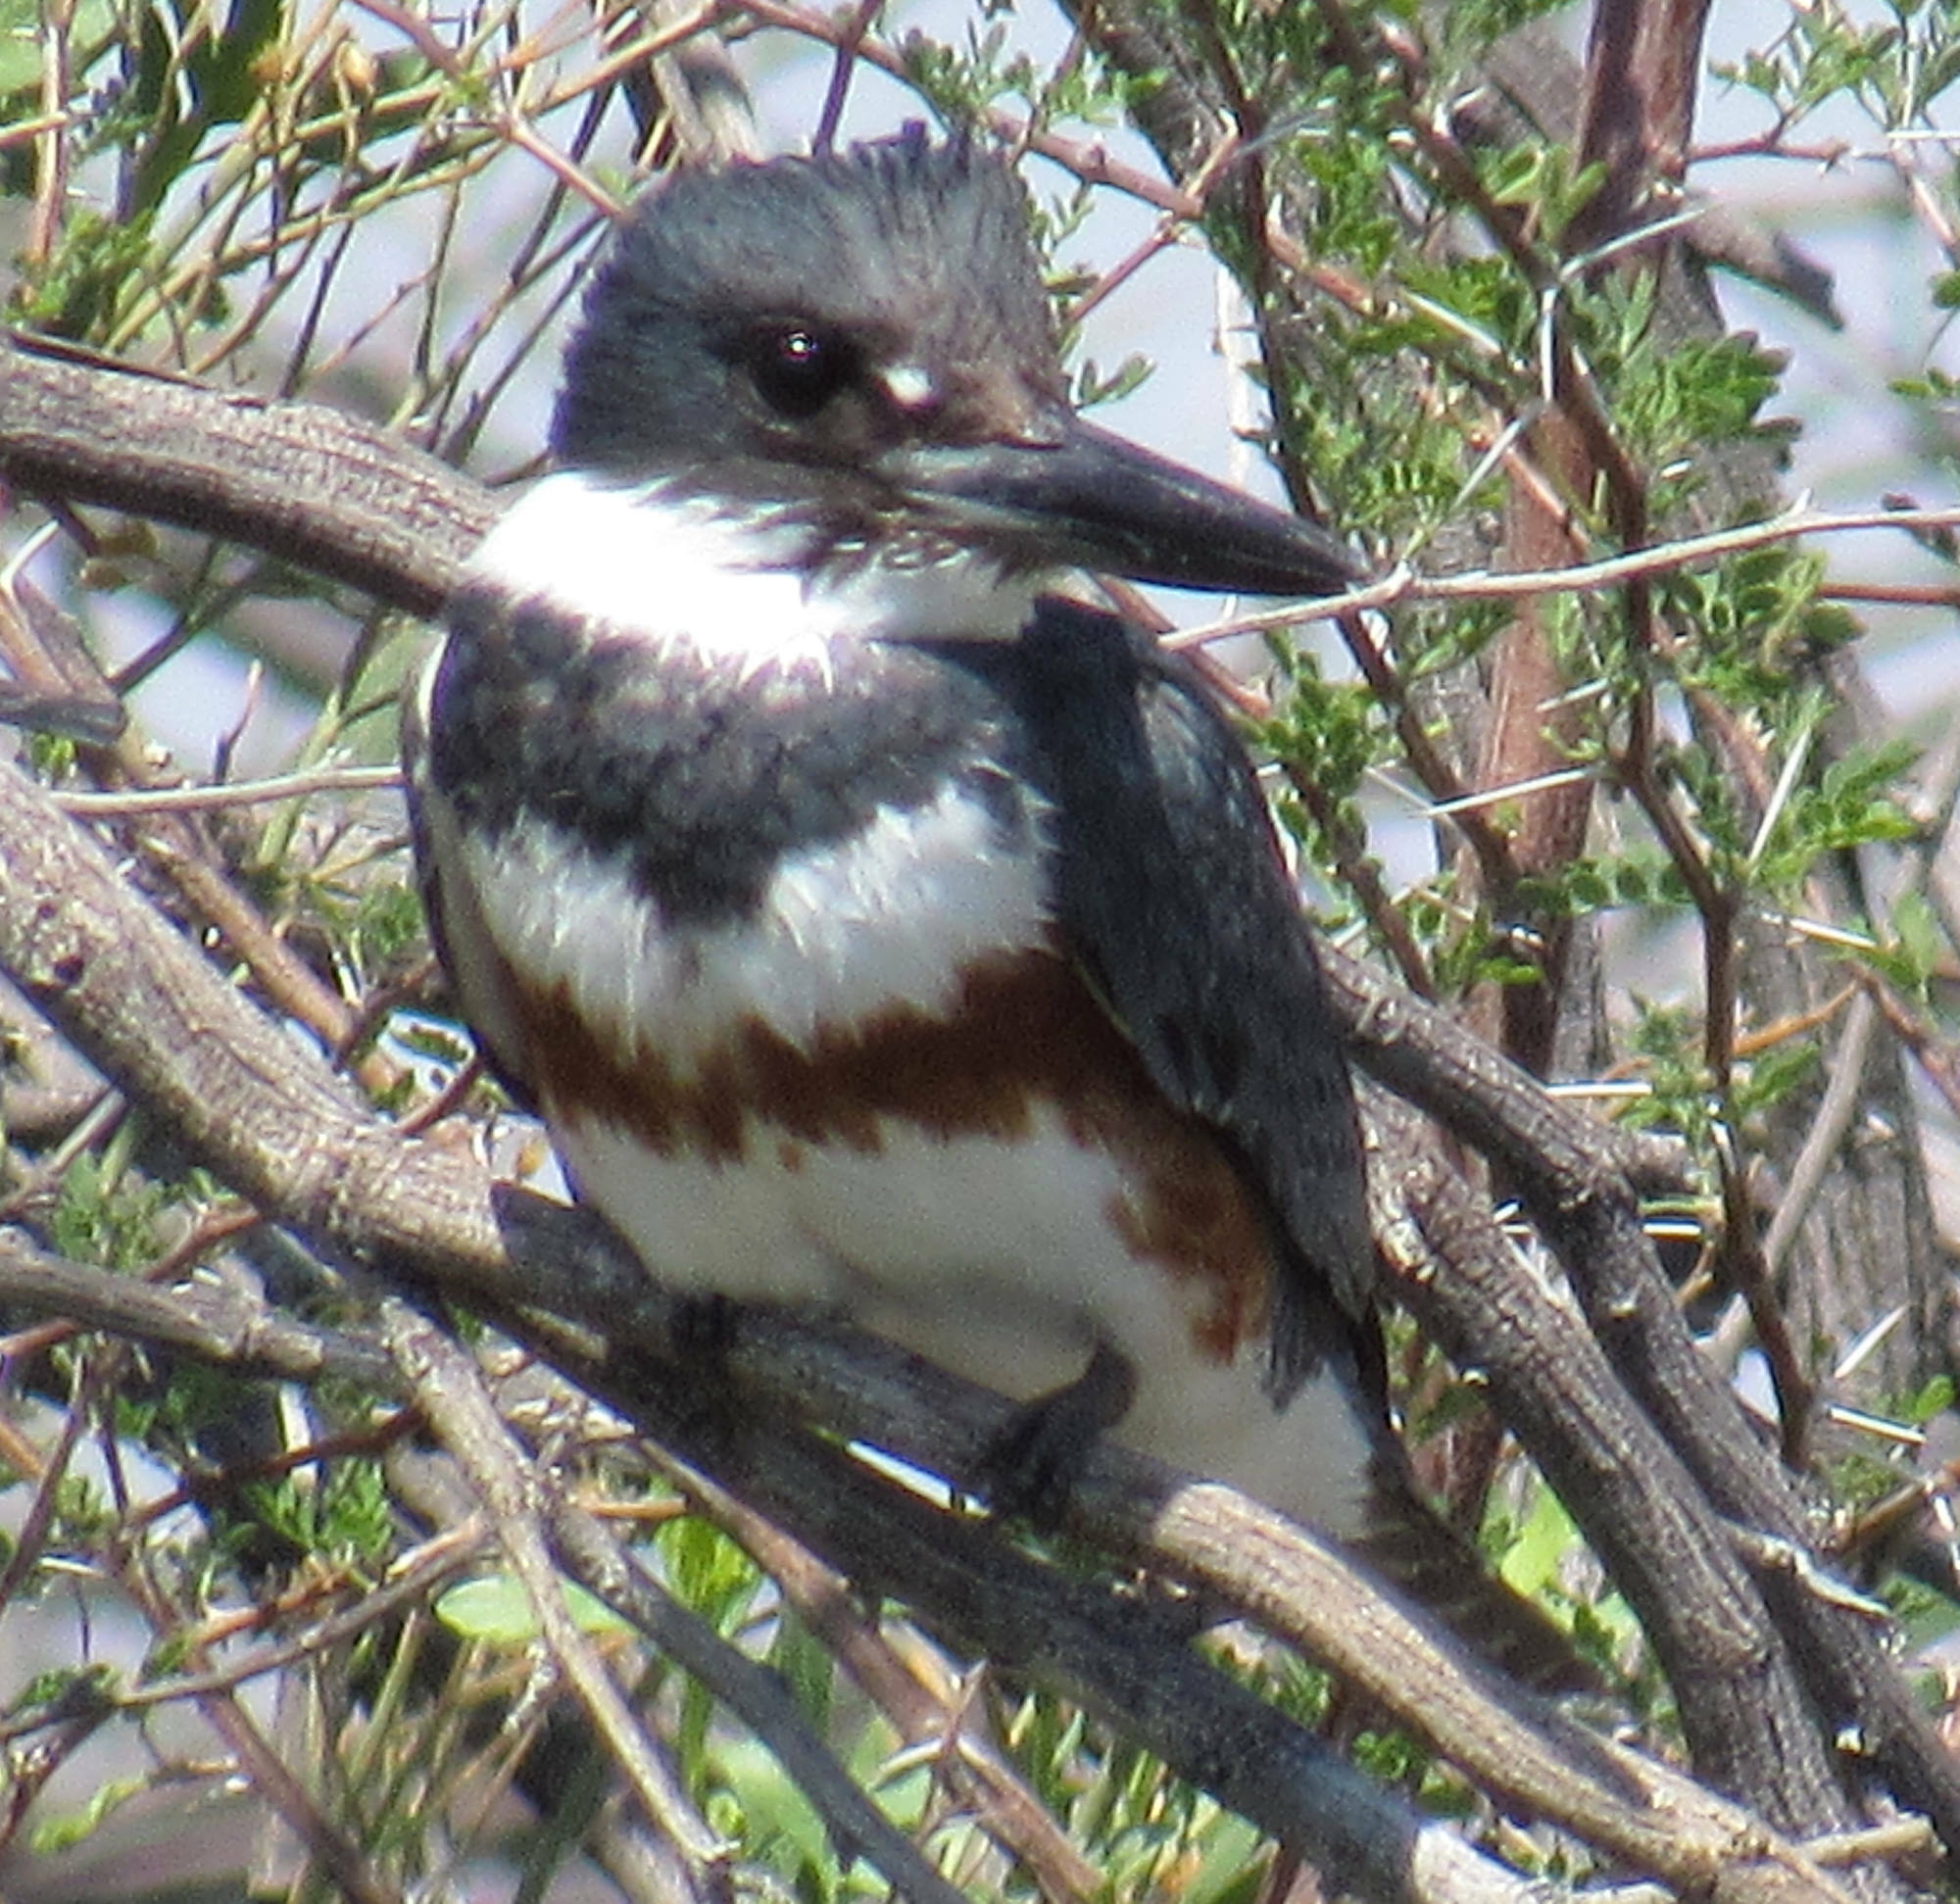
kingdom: Animalia
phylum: Chordata
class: Aves
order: Coraciiformes
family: Alcedinidae
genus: Megaceryle
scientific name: Megaceryle alcyon
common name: Belted kingfisher
